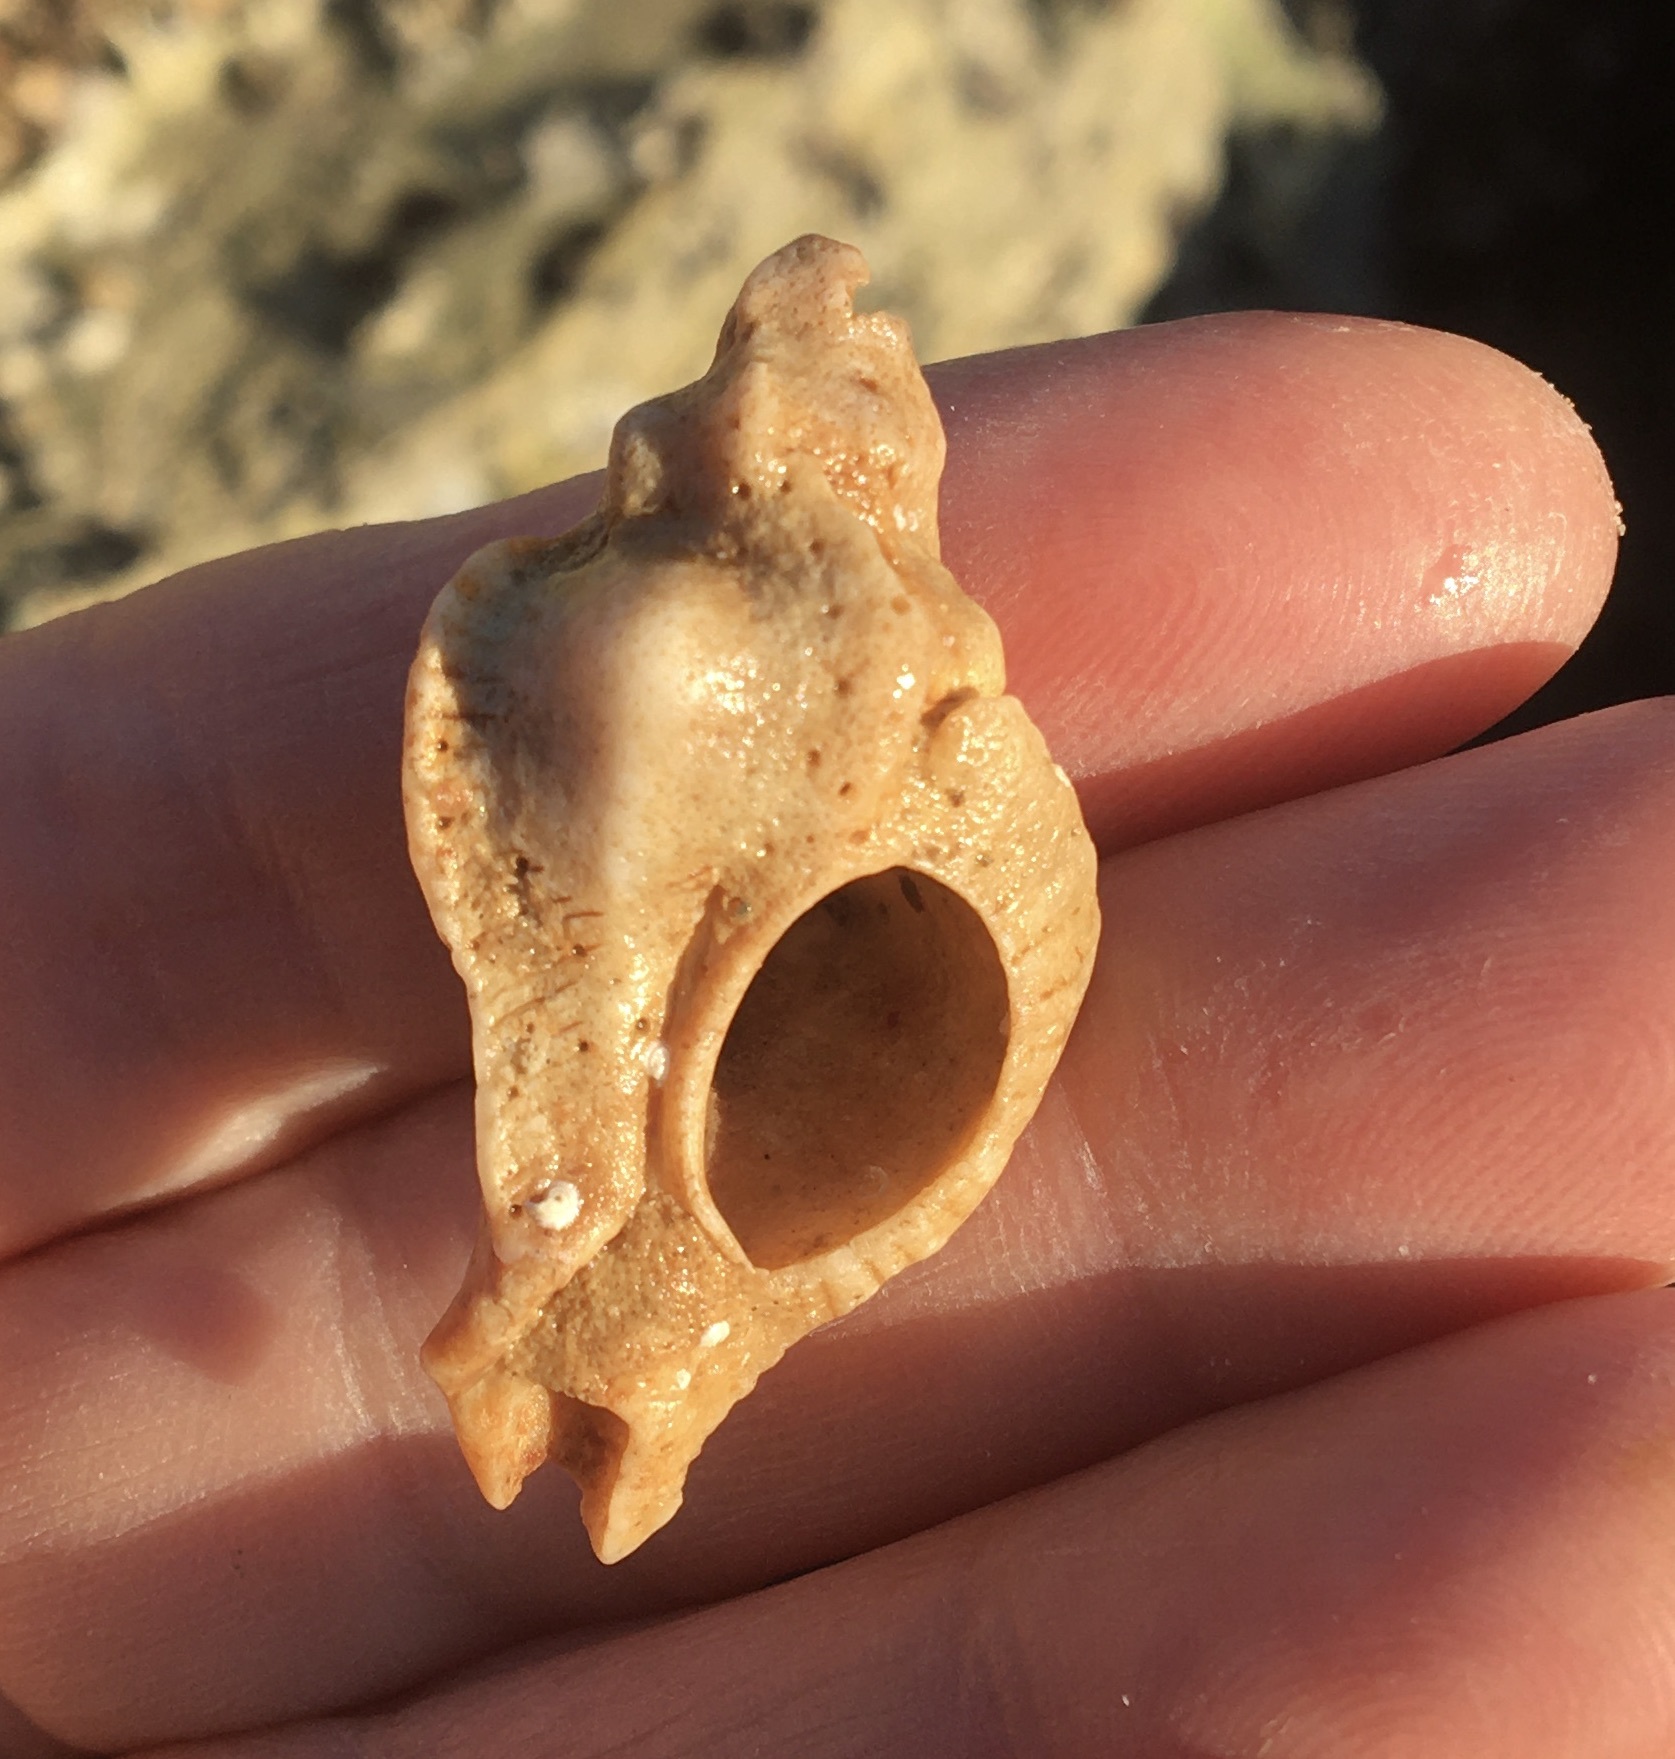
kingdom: Animalia
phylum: Mollusca
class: Gastropoda
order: Neogastropoda
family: Muricidae
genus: Pteropurpura
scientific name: Pteropurpura festiva
